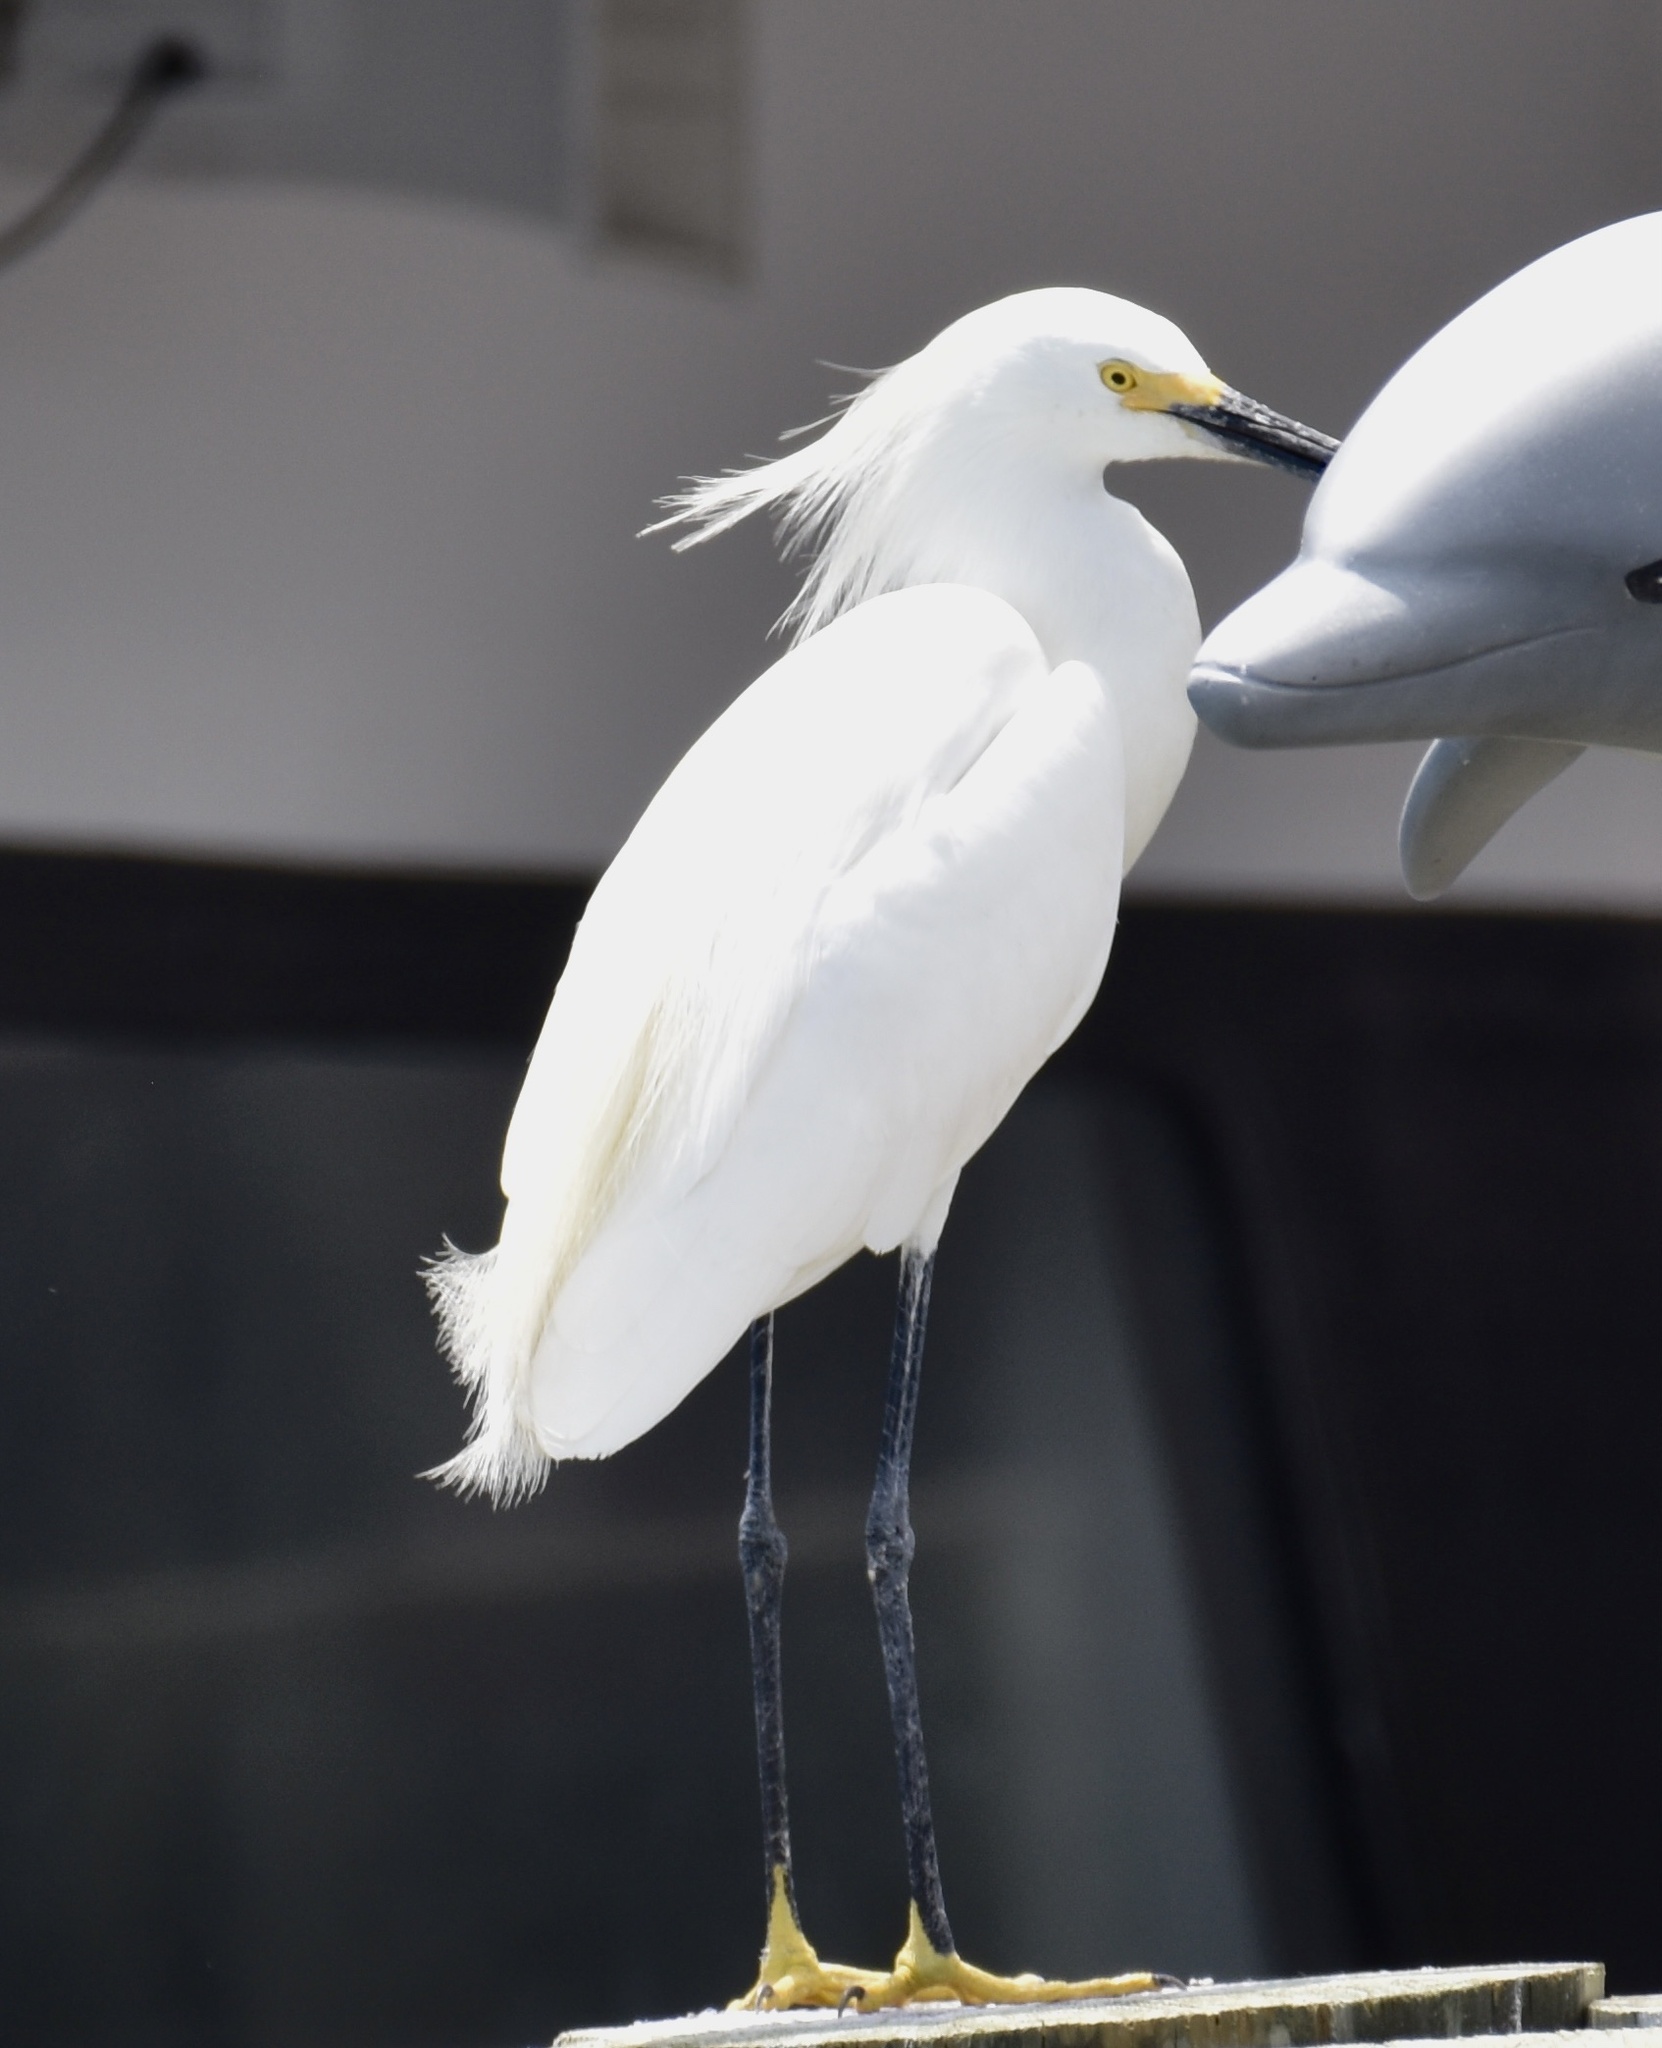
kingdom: Animalia
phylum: Chordata
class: Aves
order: Pelecaniformes
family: Ardeidae
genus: Egretta
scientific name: Egretta thula
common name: Snowy egret
